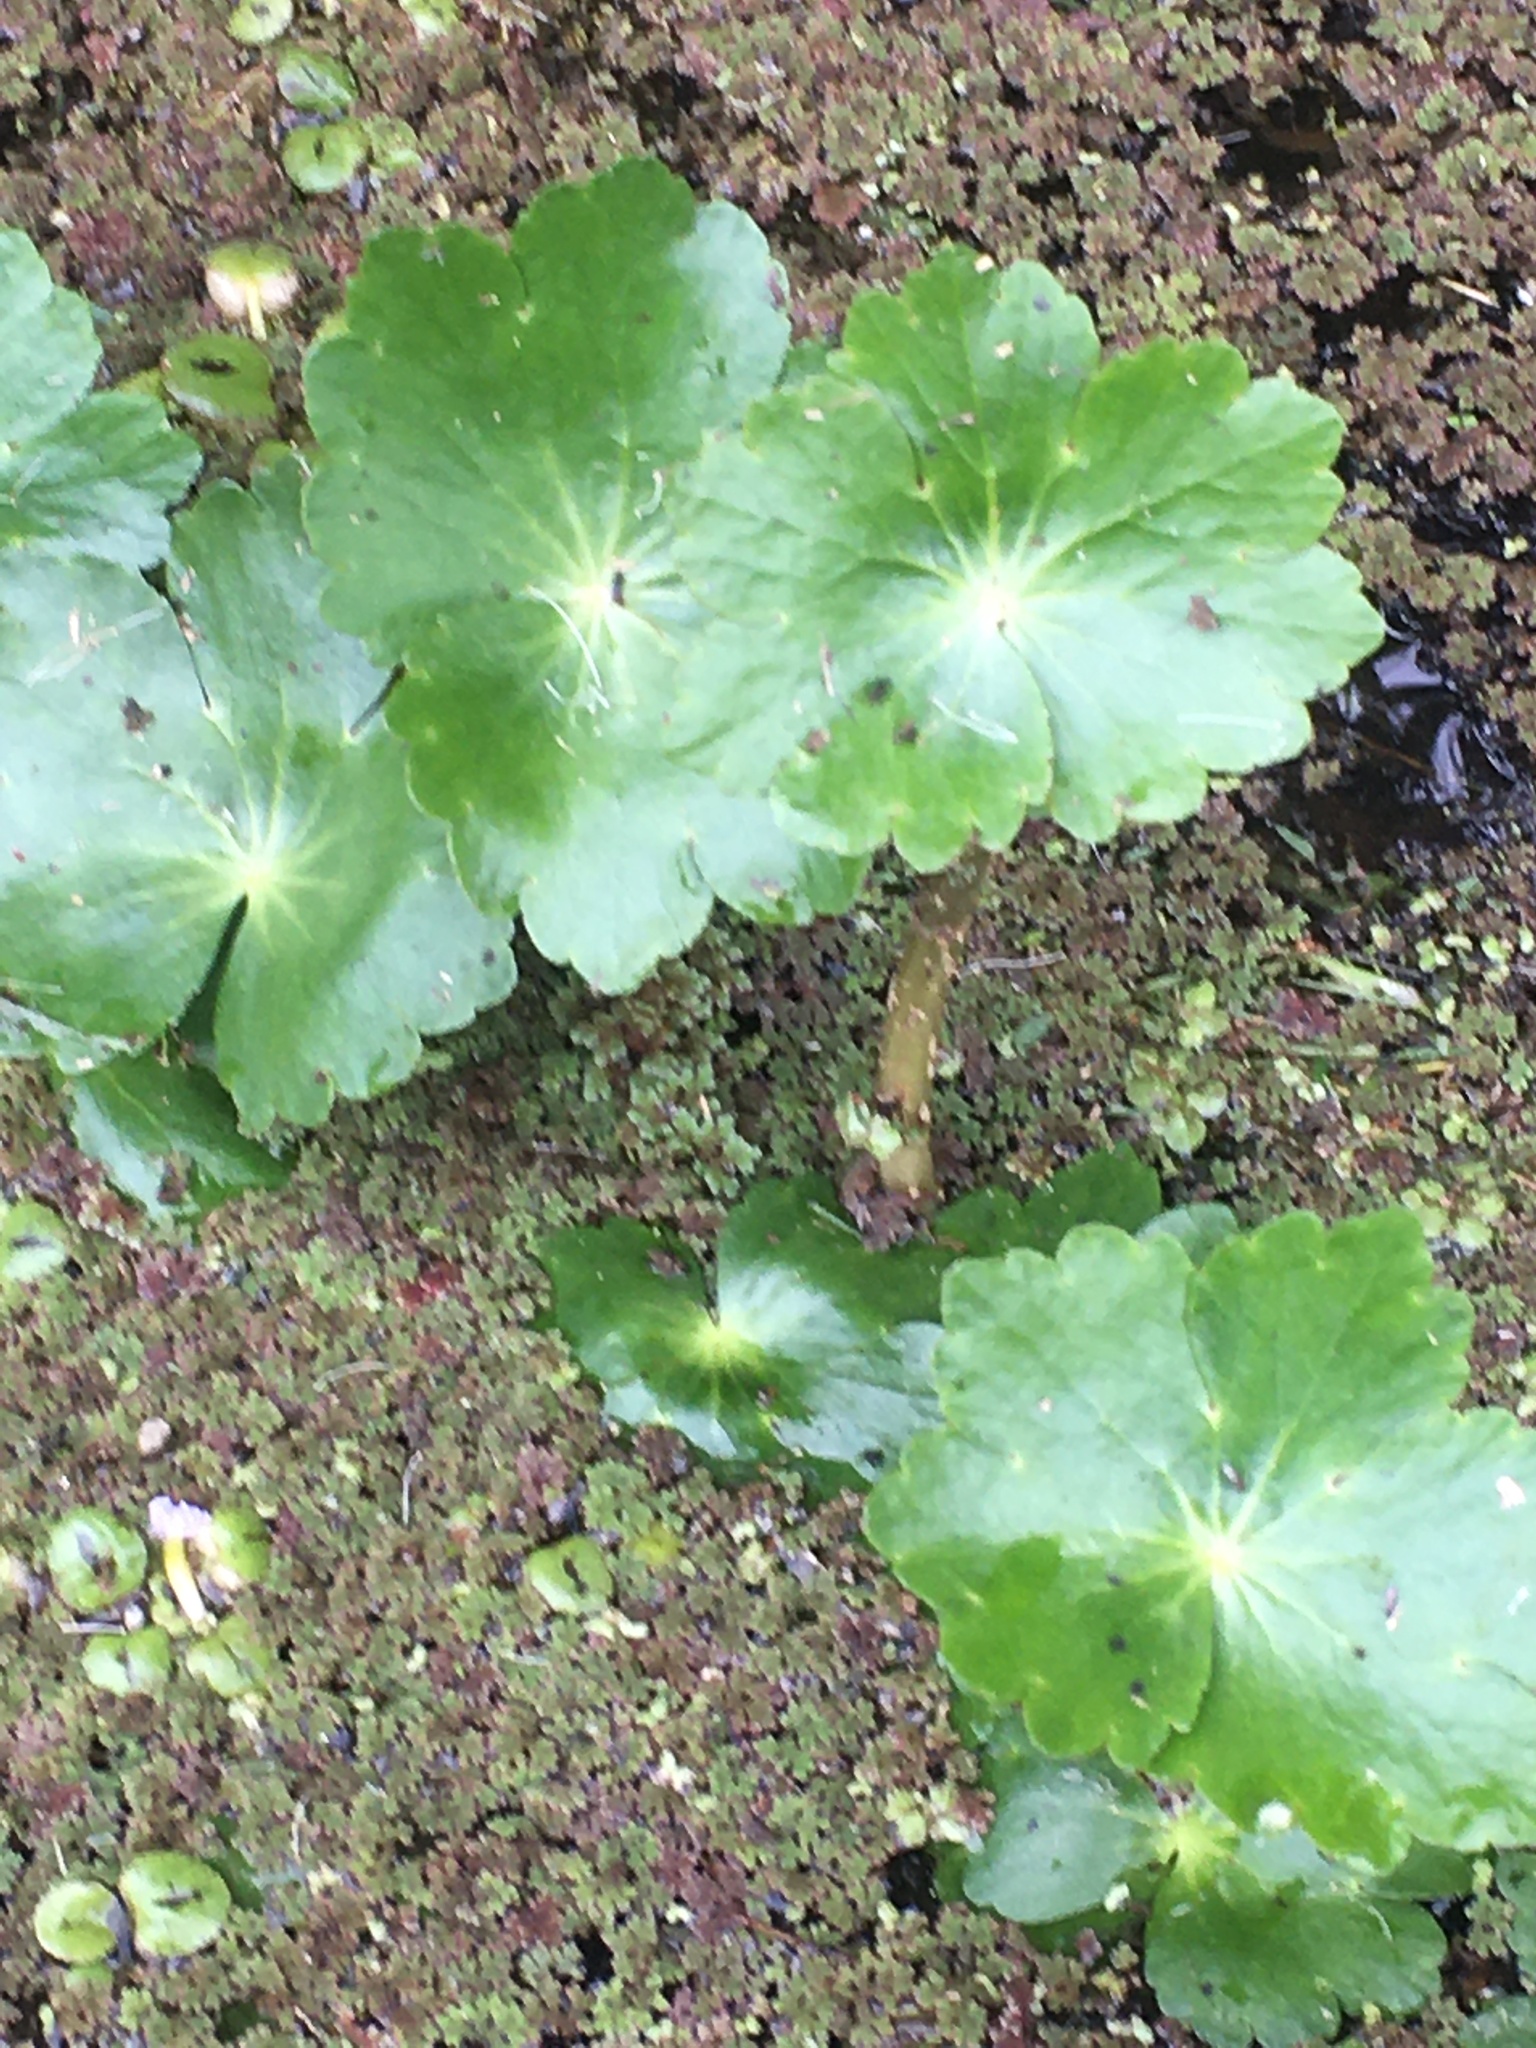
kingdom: Plantae
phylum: Tracheophyta
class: Magnoliopsida
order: Apiales
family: Araliaceae
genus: Hydrocotyle
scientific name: Hydrocotyle ranunculoides
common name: Floating pennywort
